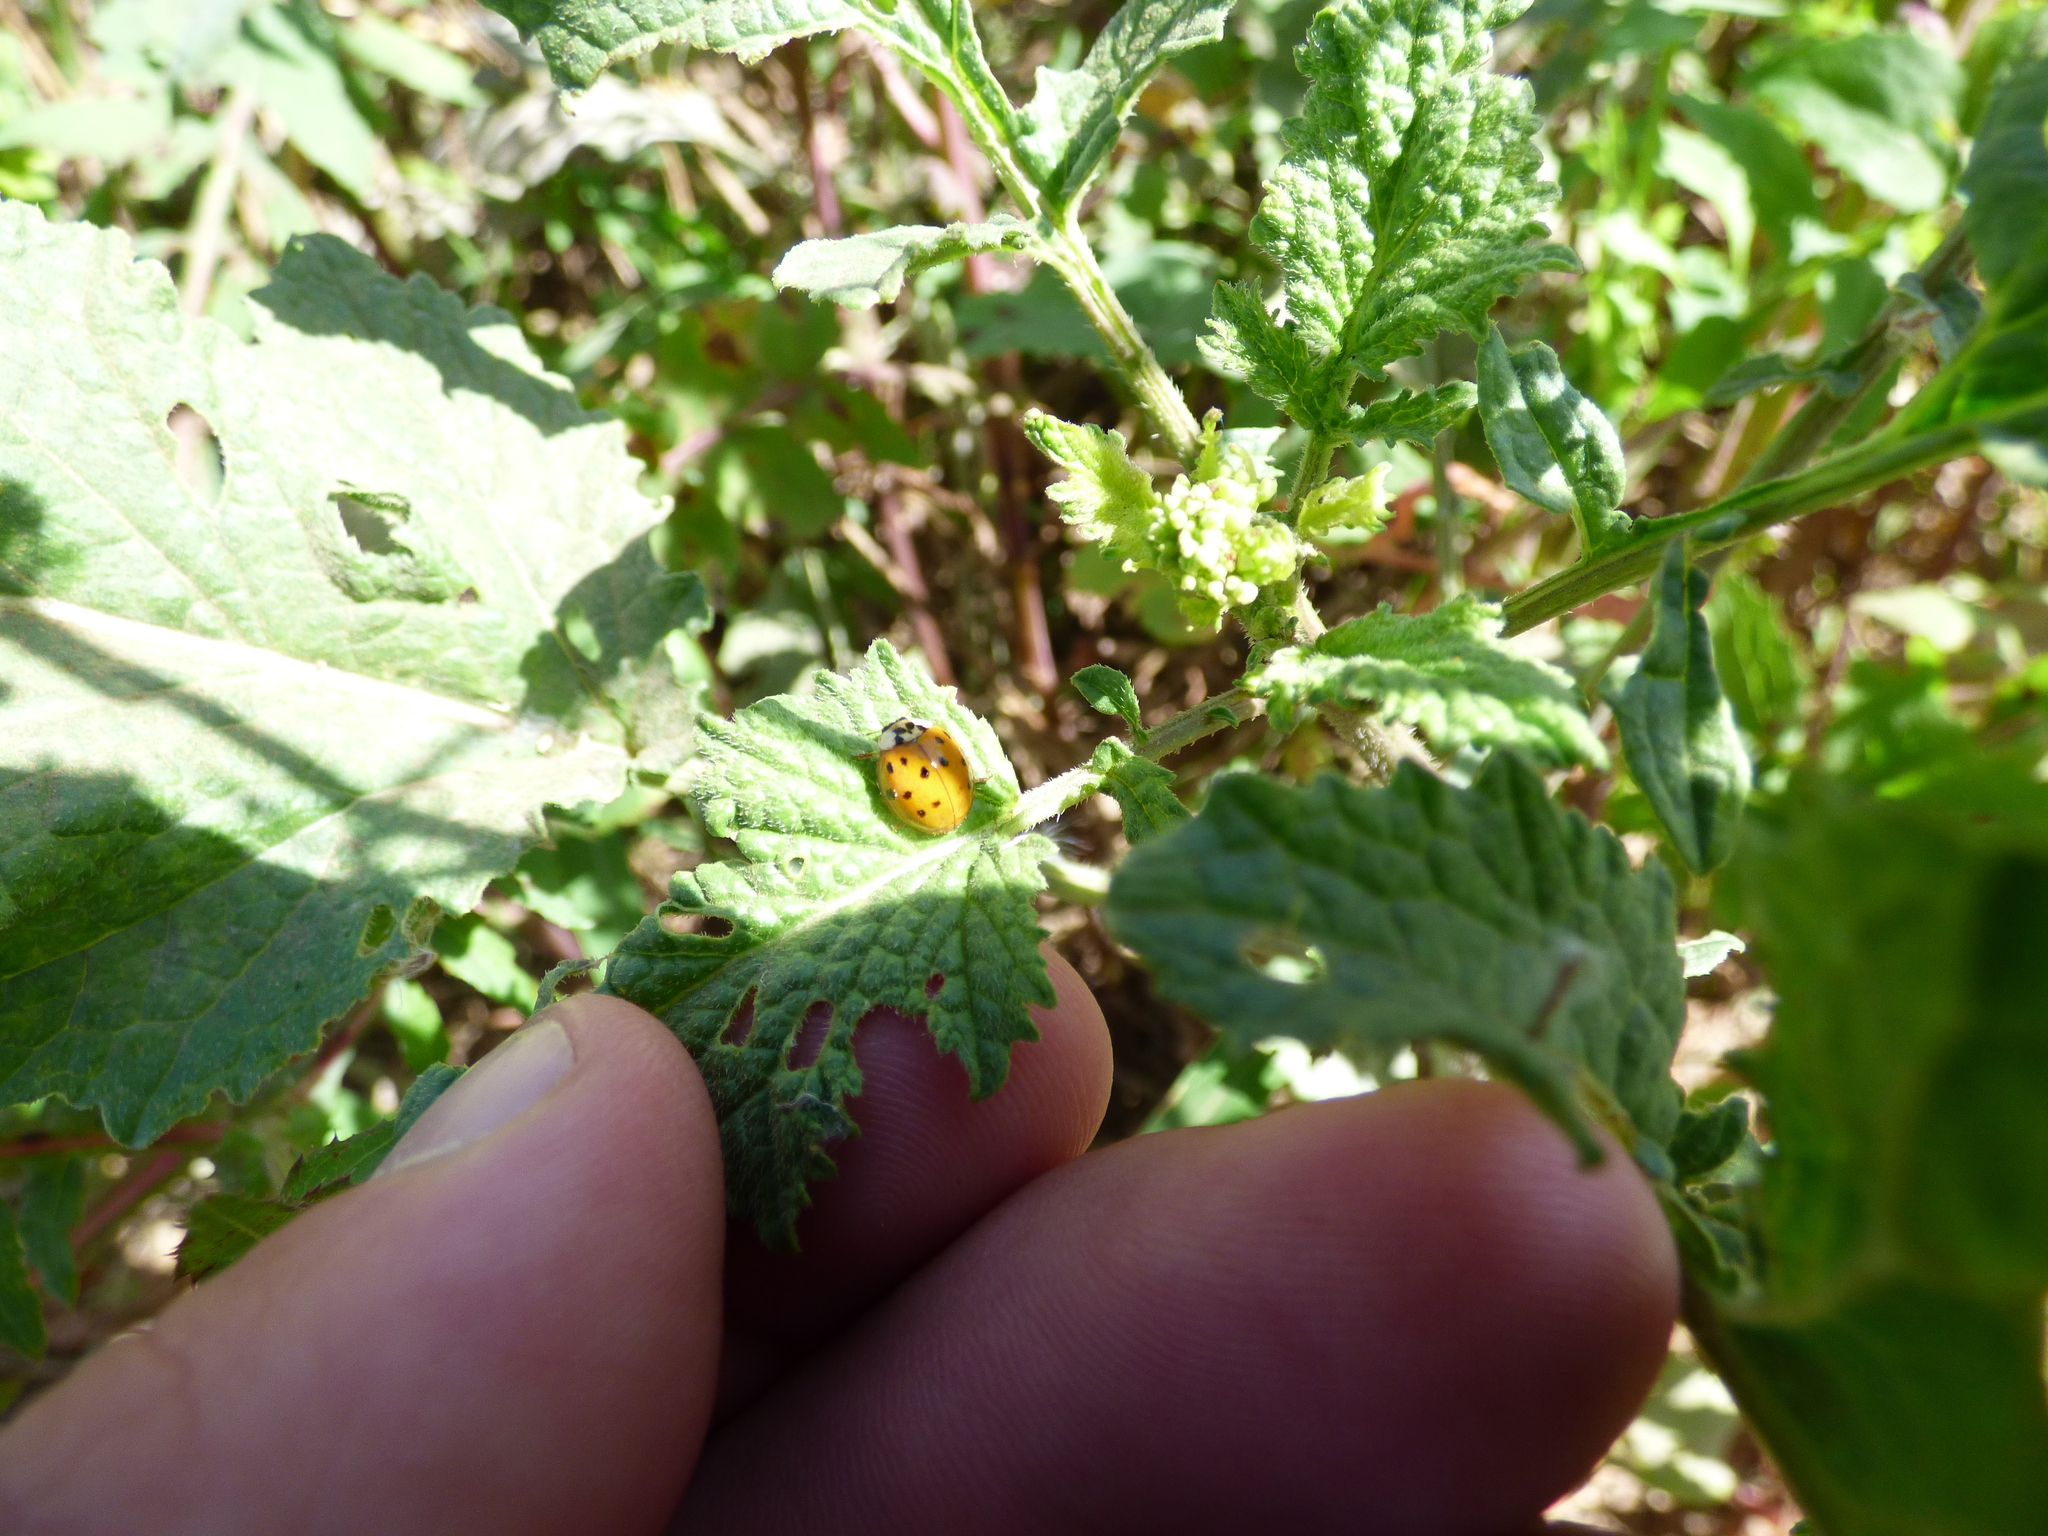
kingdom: Animalia
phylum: Arthropoda
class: Insecta
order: Coleoptera
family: Coccinellidae
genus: Harmonia
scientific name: Harmonia axyridis
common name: Harlequin ladybird
